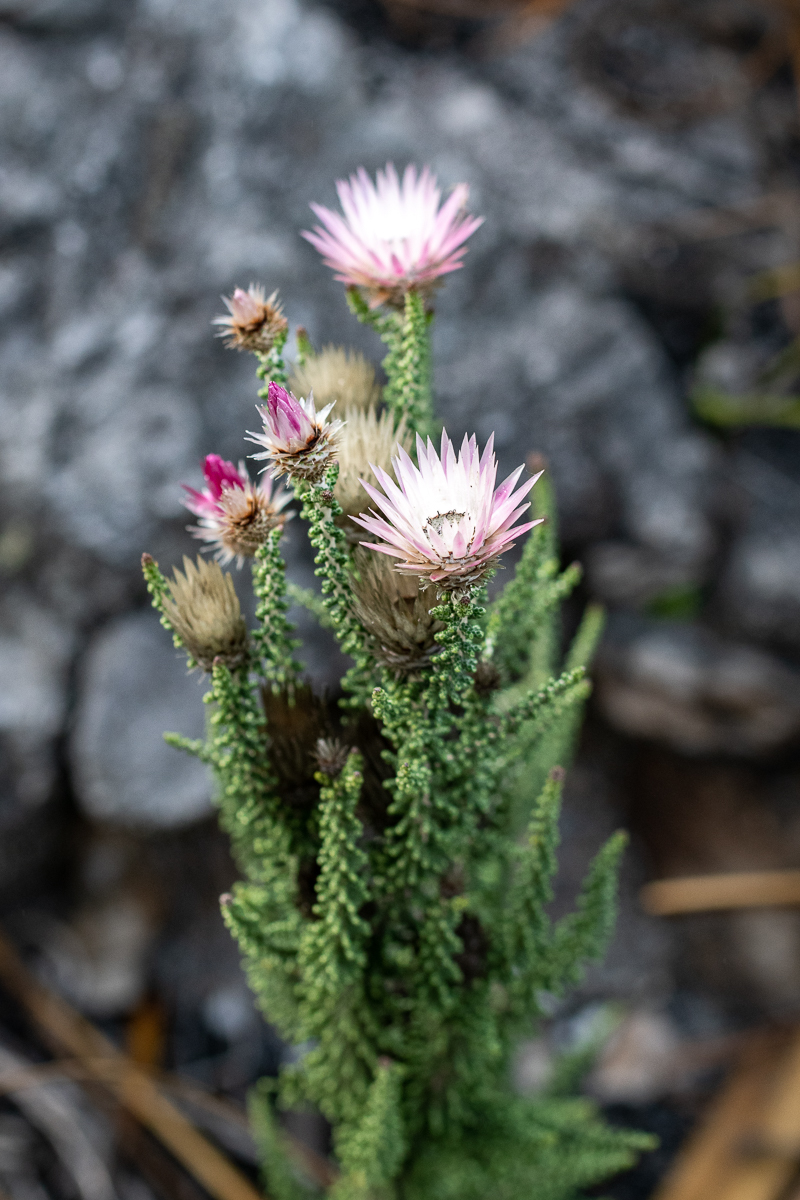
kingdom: Plantae
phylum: Tracheophyta
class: Magnoliopsida
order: Asterales
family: Asteraceae
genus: Phaenocoma
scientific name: Phaenocoma prolifera
